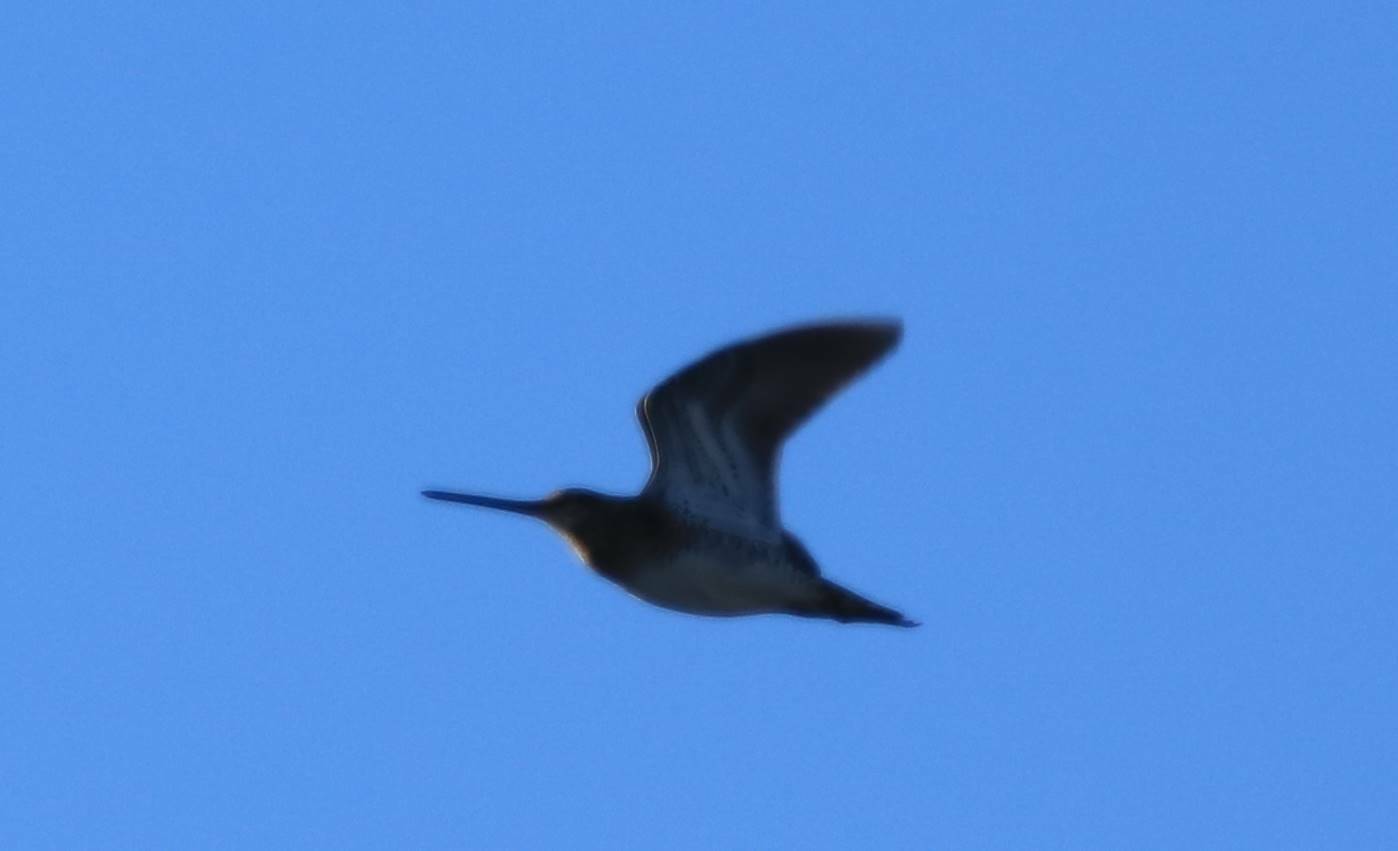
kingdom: Animalia
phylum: Chordata
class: Aves
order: Charadriiformes
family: Scolopacidae
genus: Gallinago
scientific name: Gallinago gallinago
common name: Common snipe
